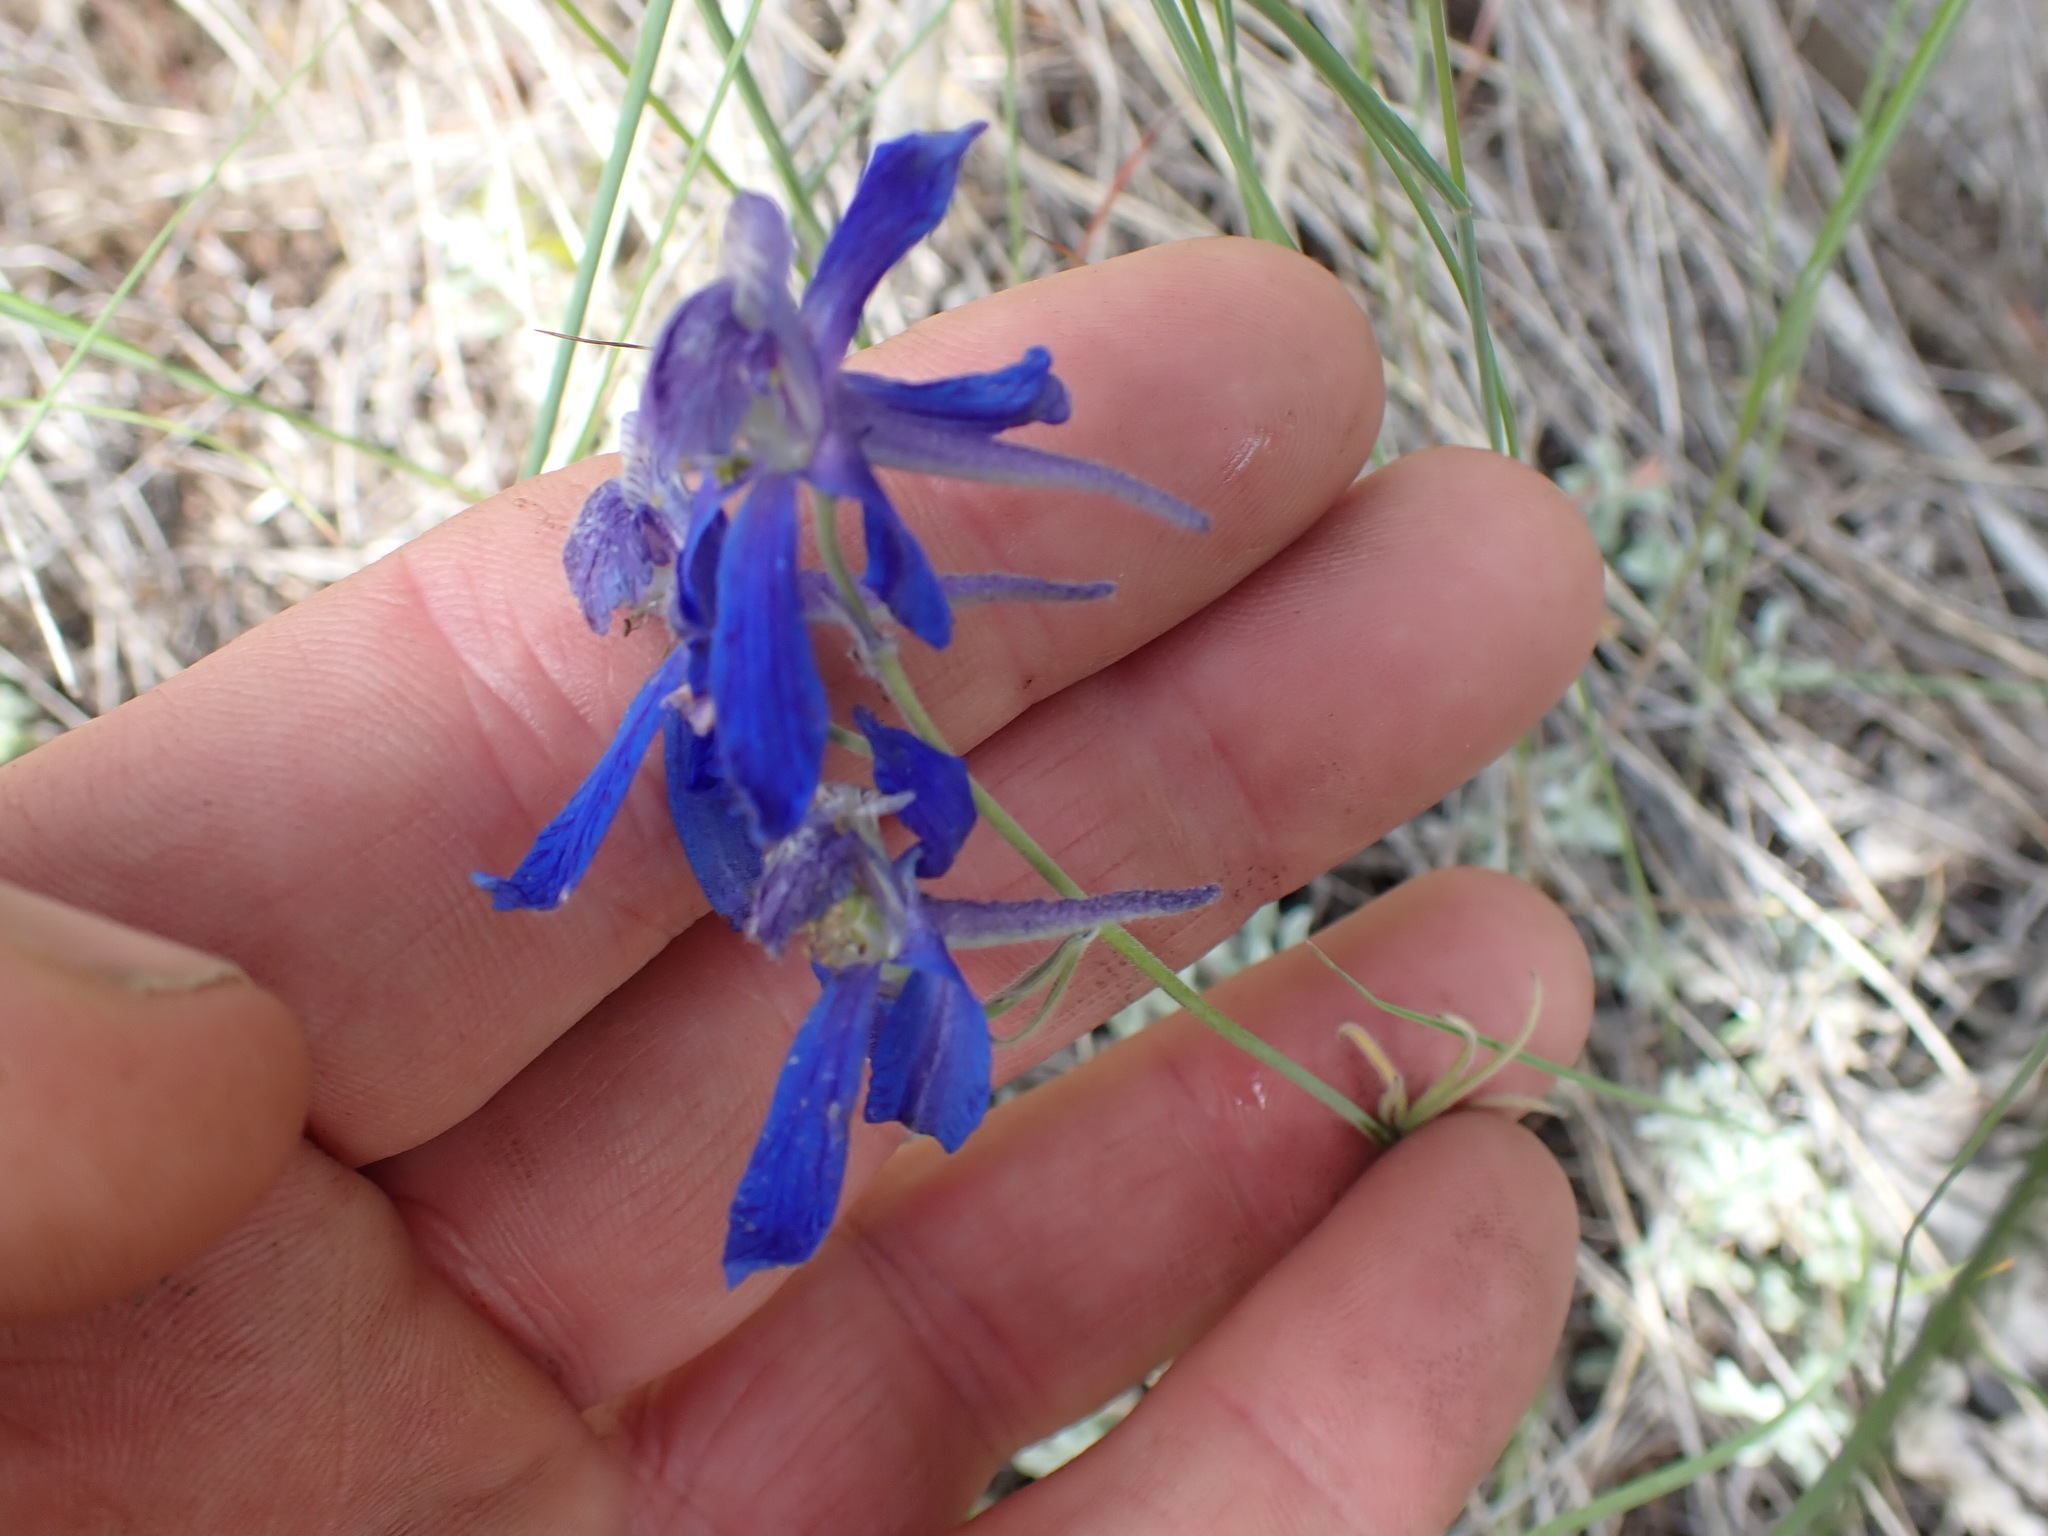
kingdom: Plantae
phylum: Tracheophyta
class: Magnoliopsida
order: Ranunculales
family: Ranunculaceae
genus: Delphinium
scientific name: Delphinium nuttallianum
